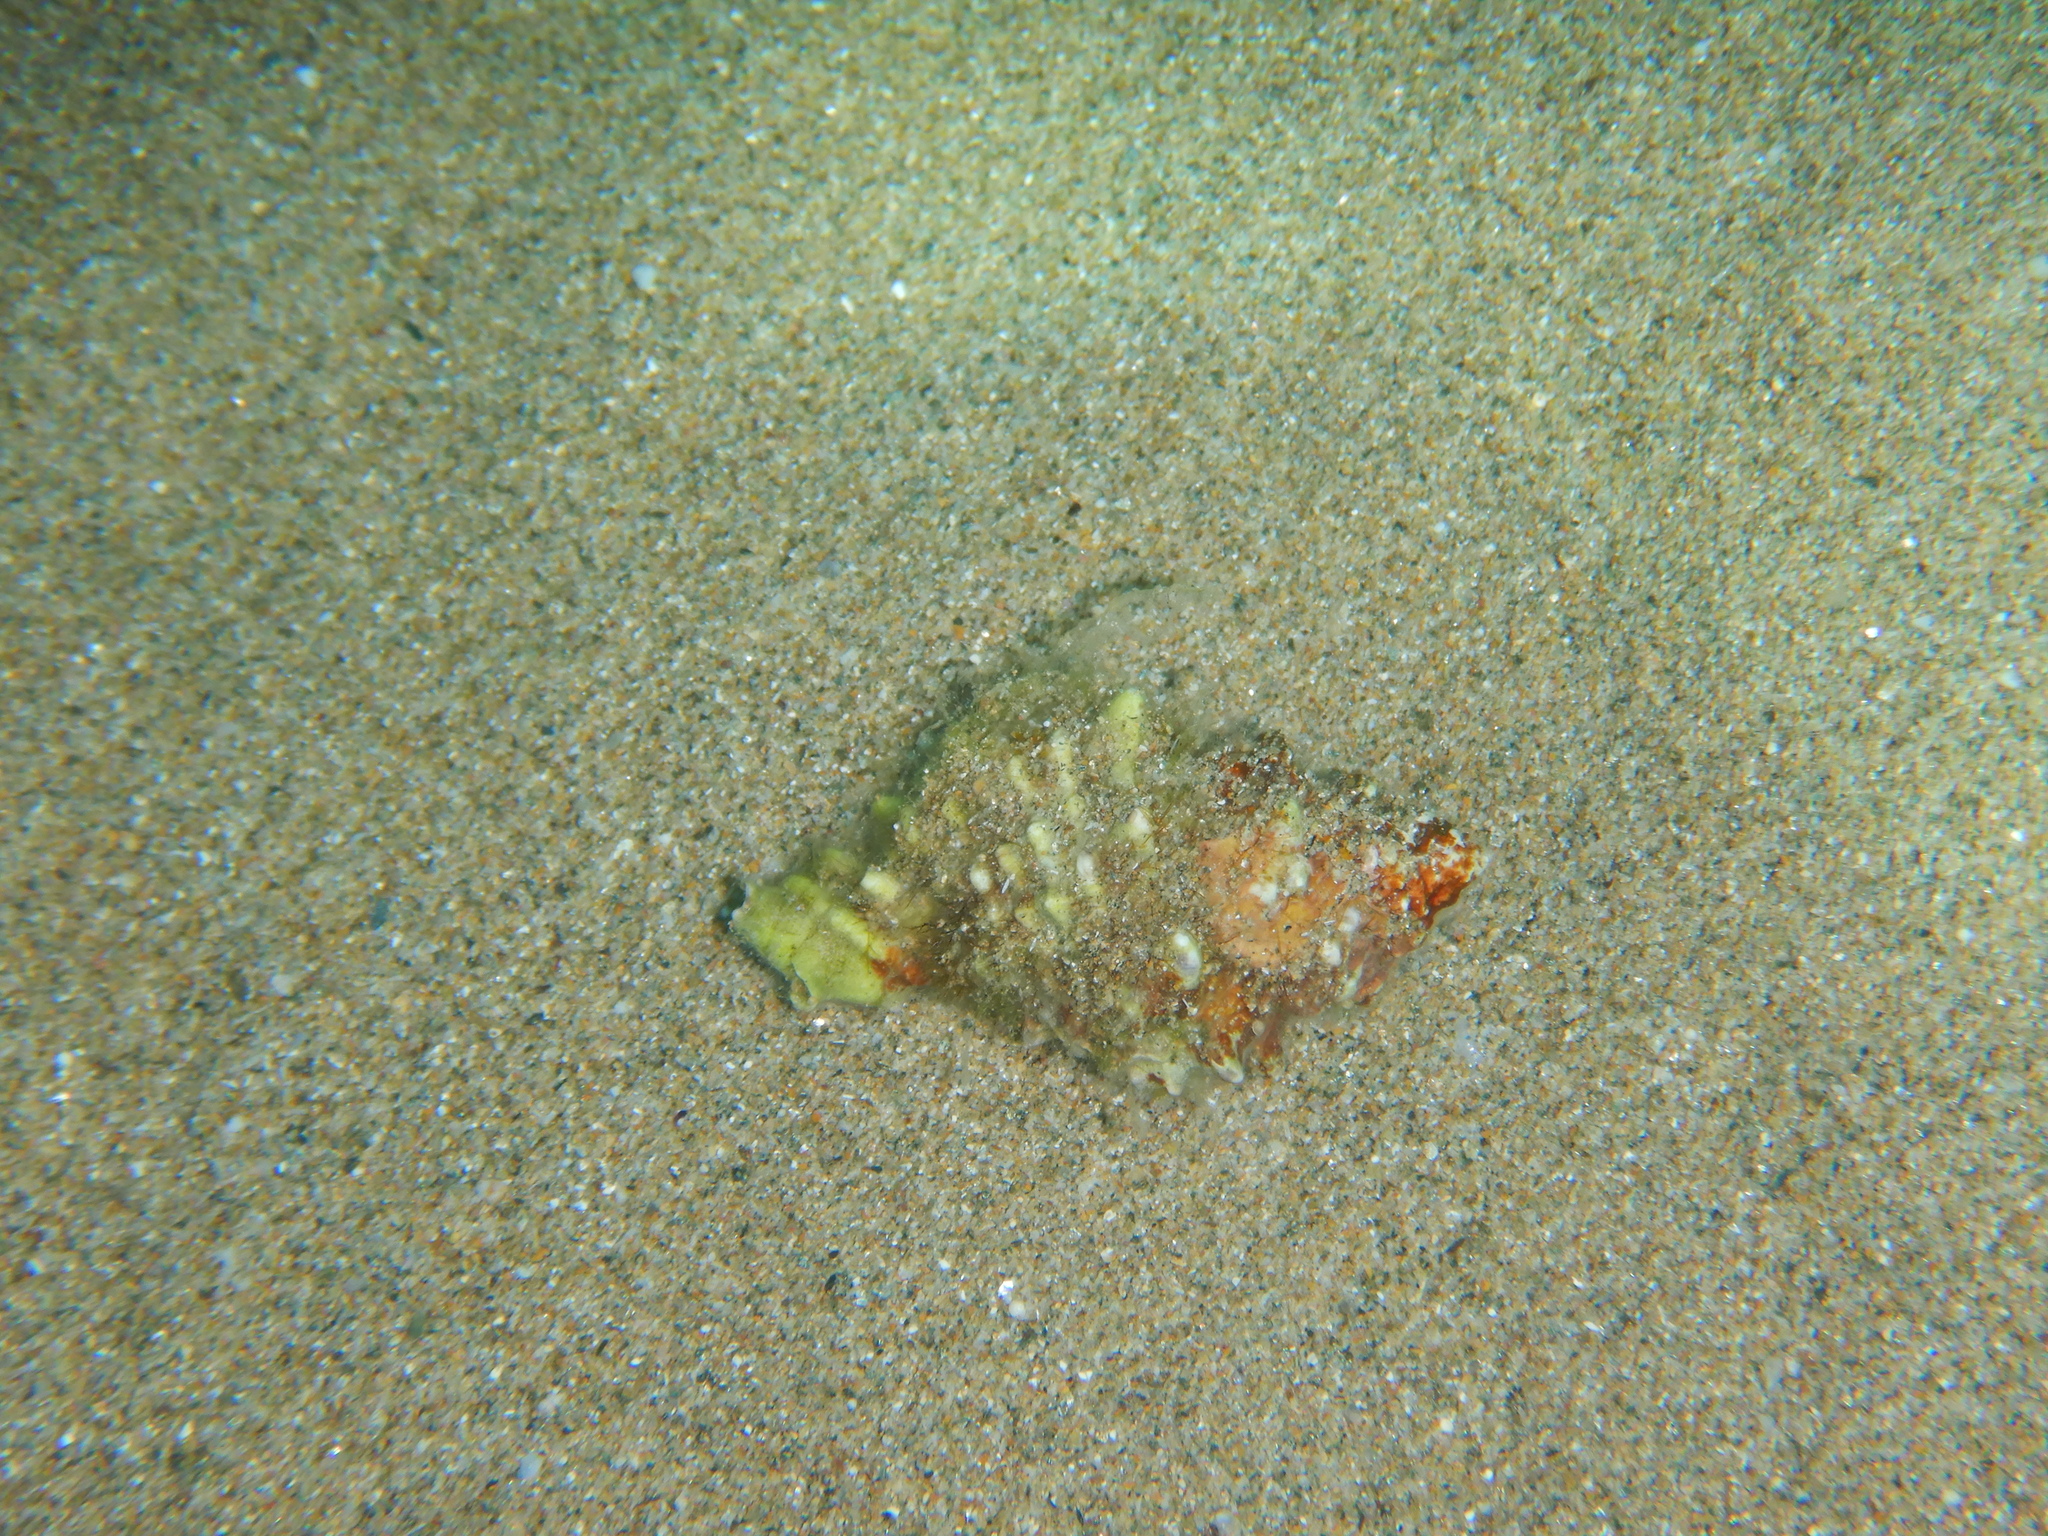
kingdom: Animalia
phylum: Mollusca
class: Gastropoda
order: Neogastropoda
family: Muricidae
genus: Hexaplex
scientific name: Hexaplex trunculus
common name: Banded dye-murex
